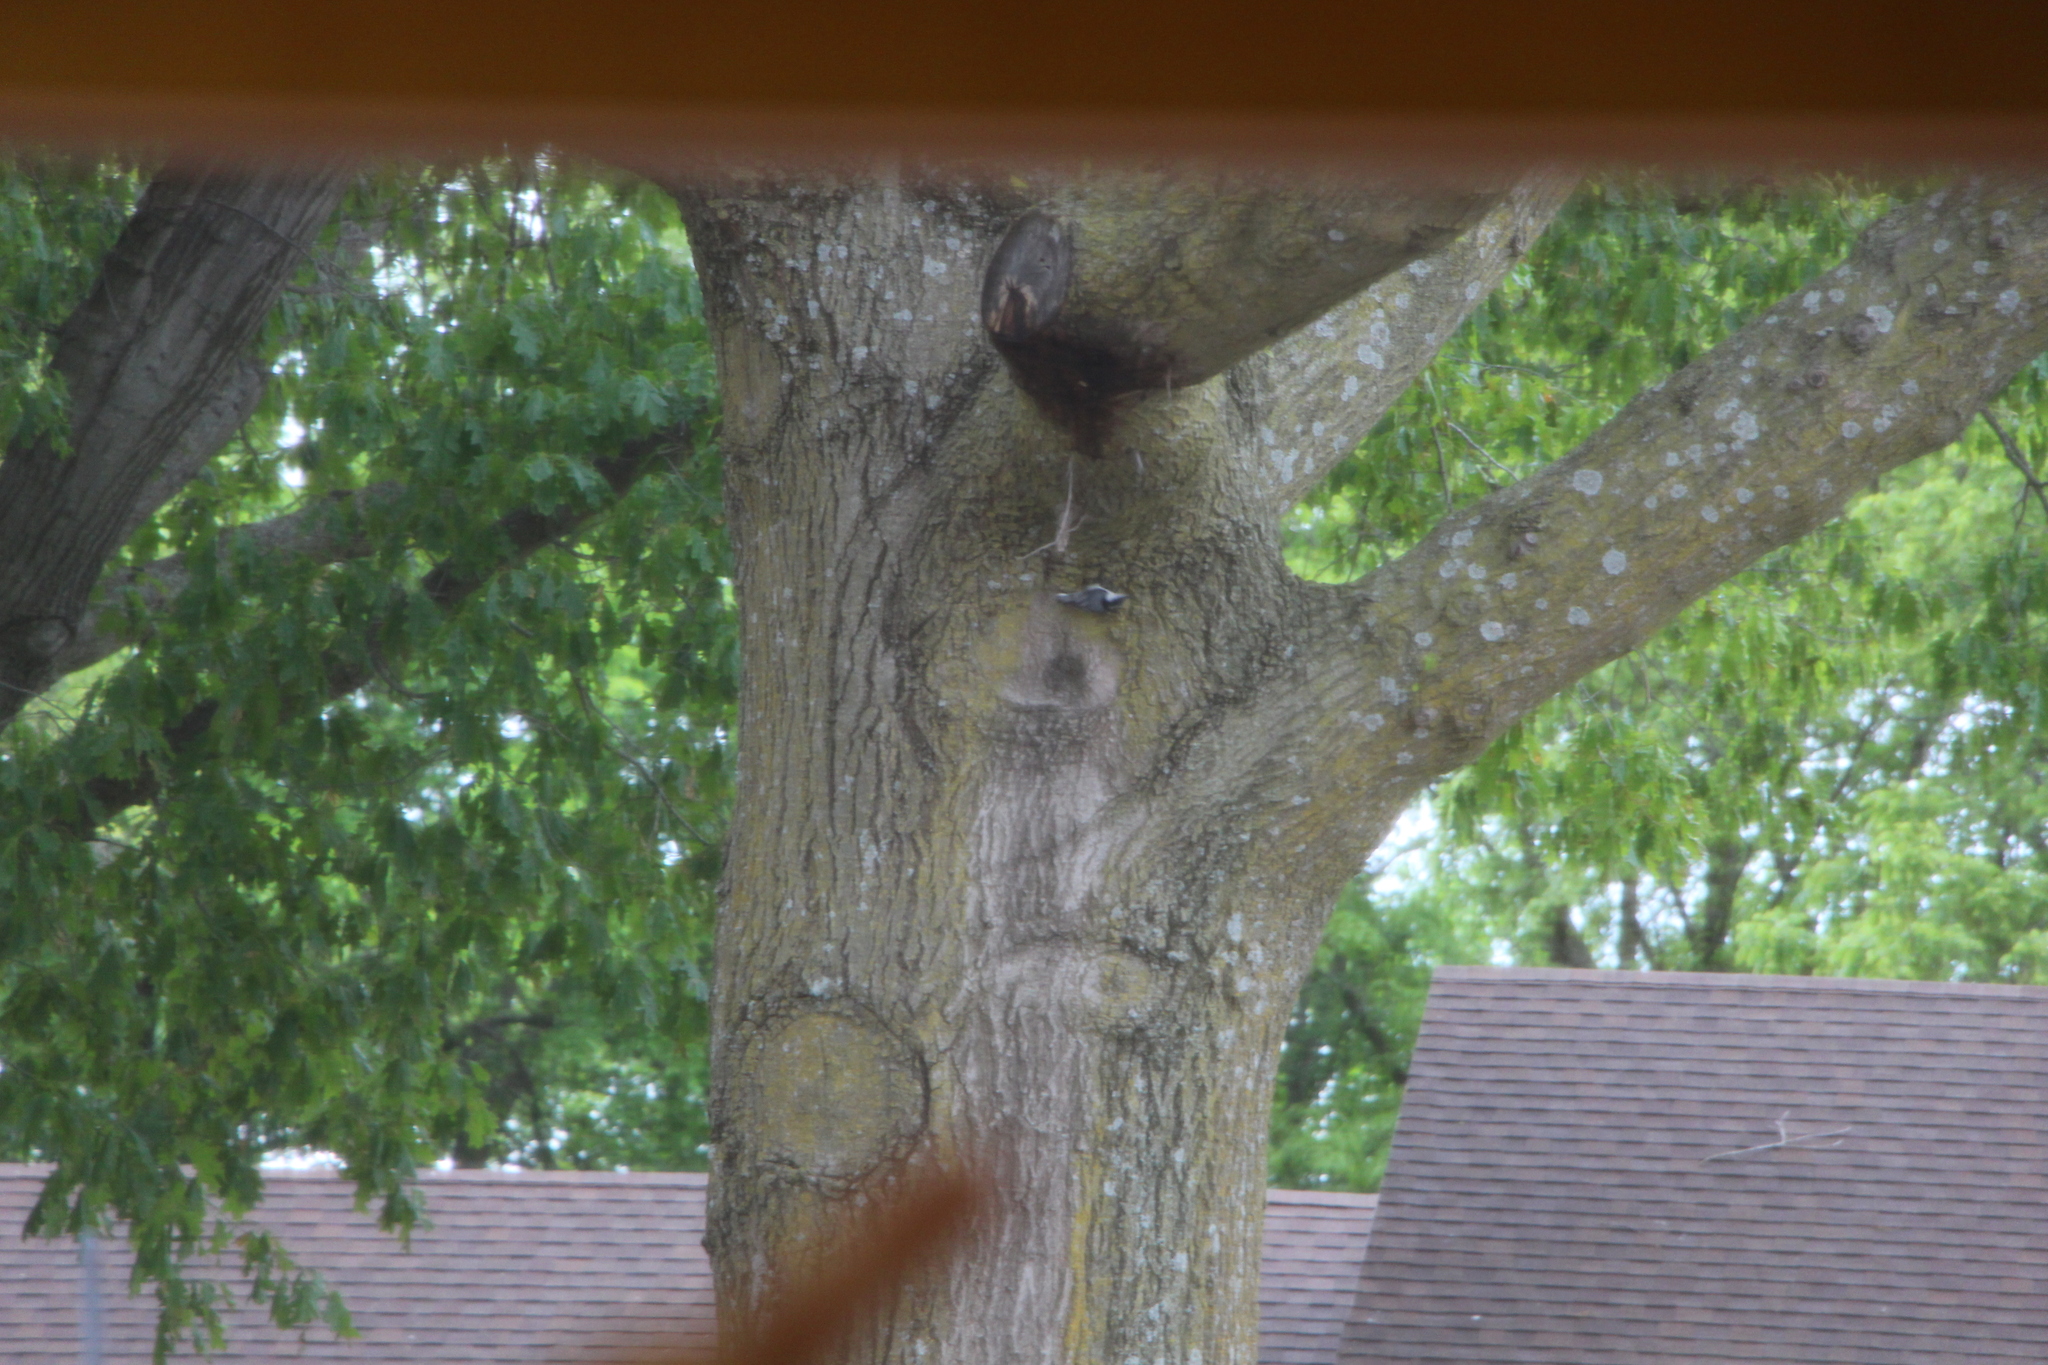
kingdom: Animalia
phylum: Chordata
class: Aves
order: Passeriformes
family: Sittidae
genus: Sitta
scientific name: Sitta carolinensis
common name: White-breasted nuthatch
